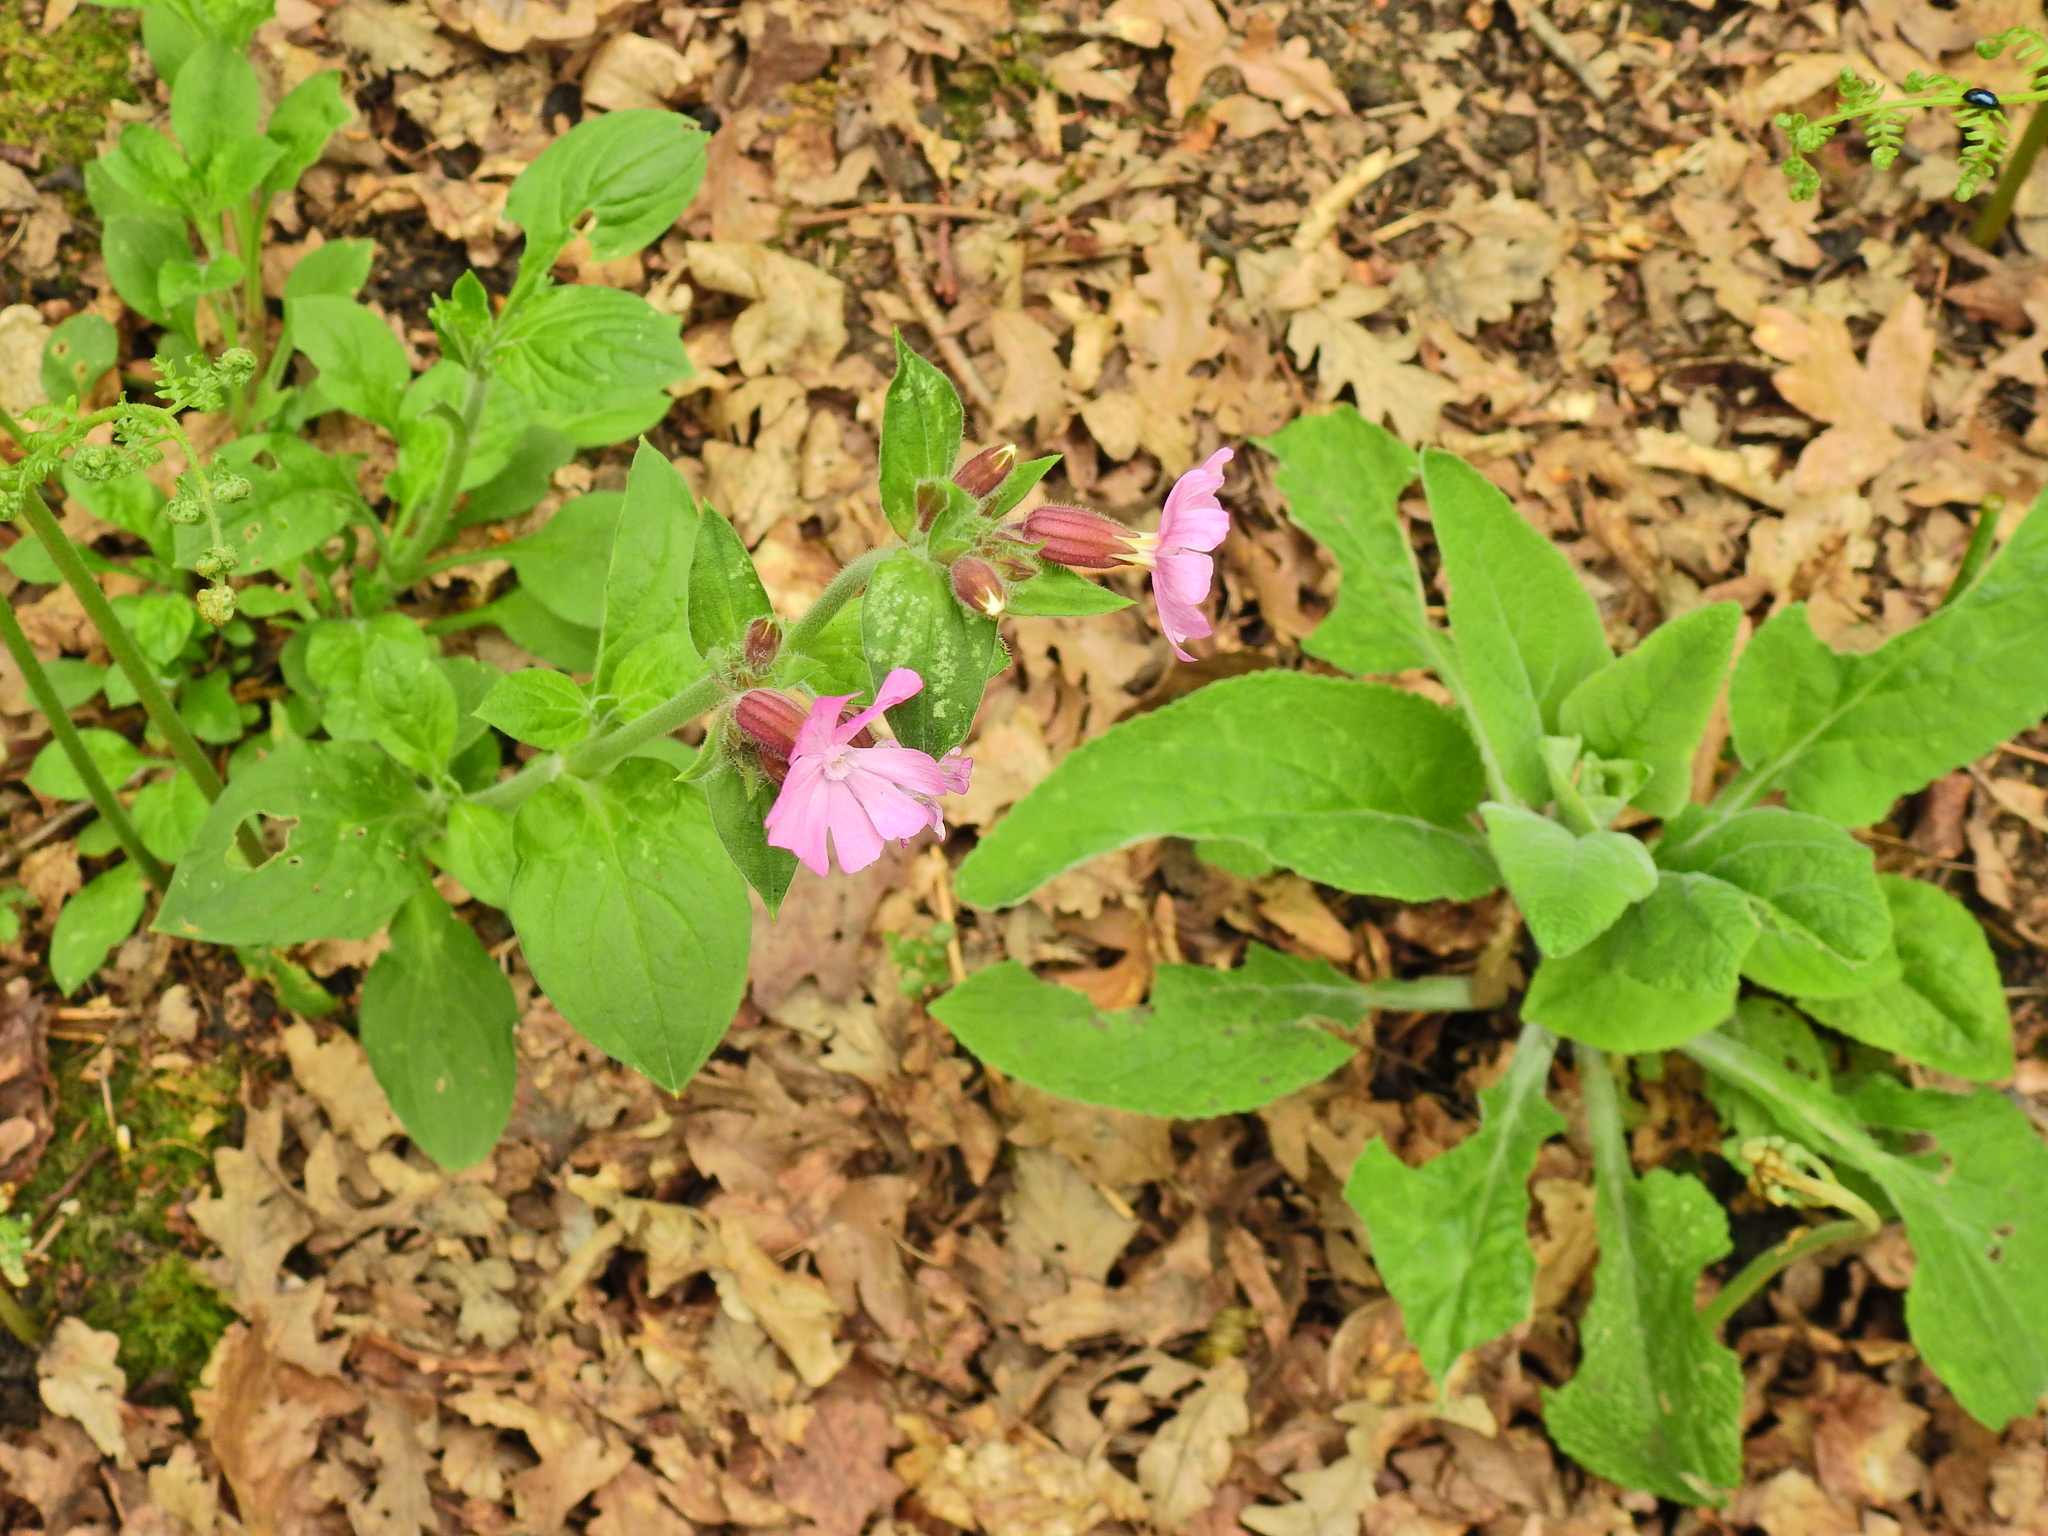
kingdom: Plantae
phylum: Tracheophyta
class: Magnoliopsida
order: Caryophyllales
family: Caryophyllaceae
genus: Silene
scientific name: Silene dioica
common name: Red campion
